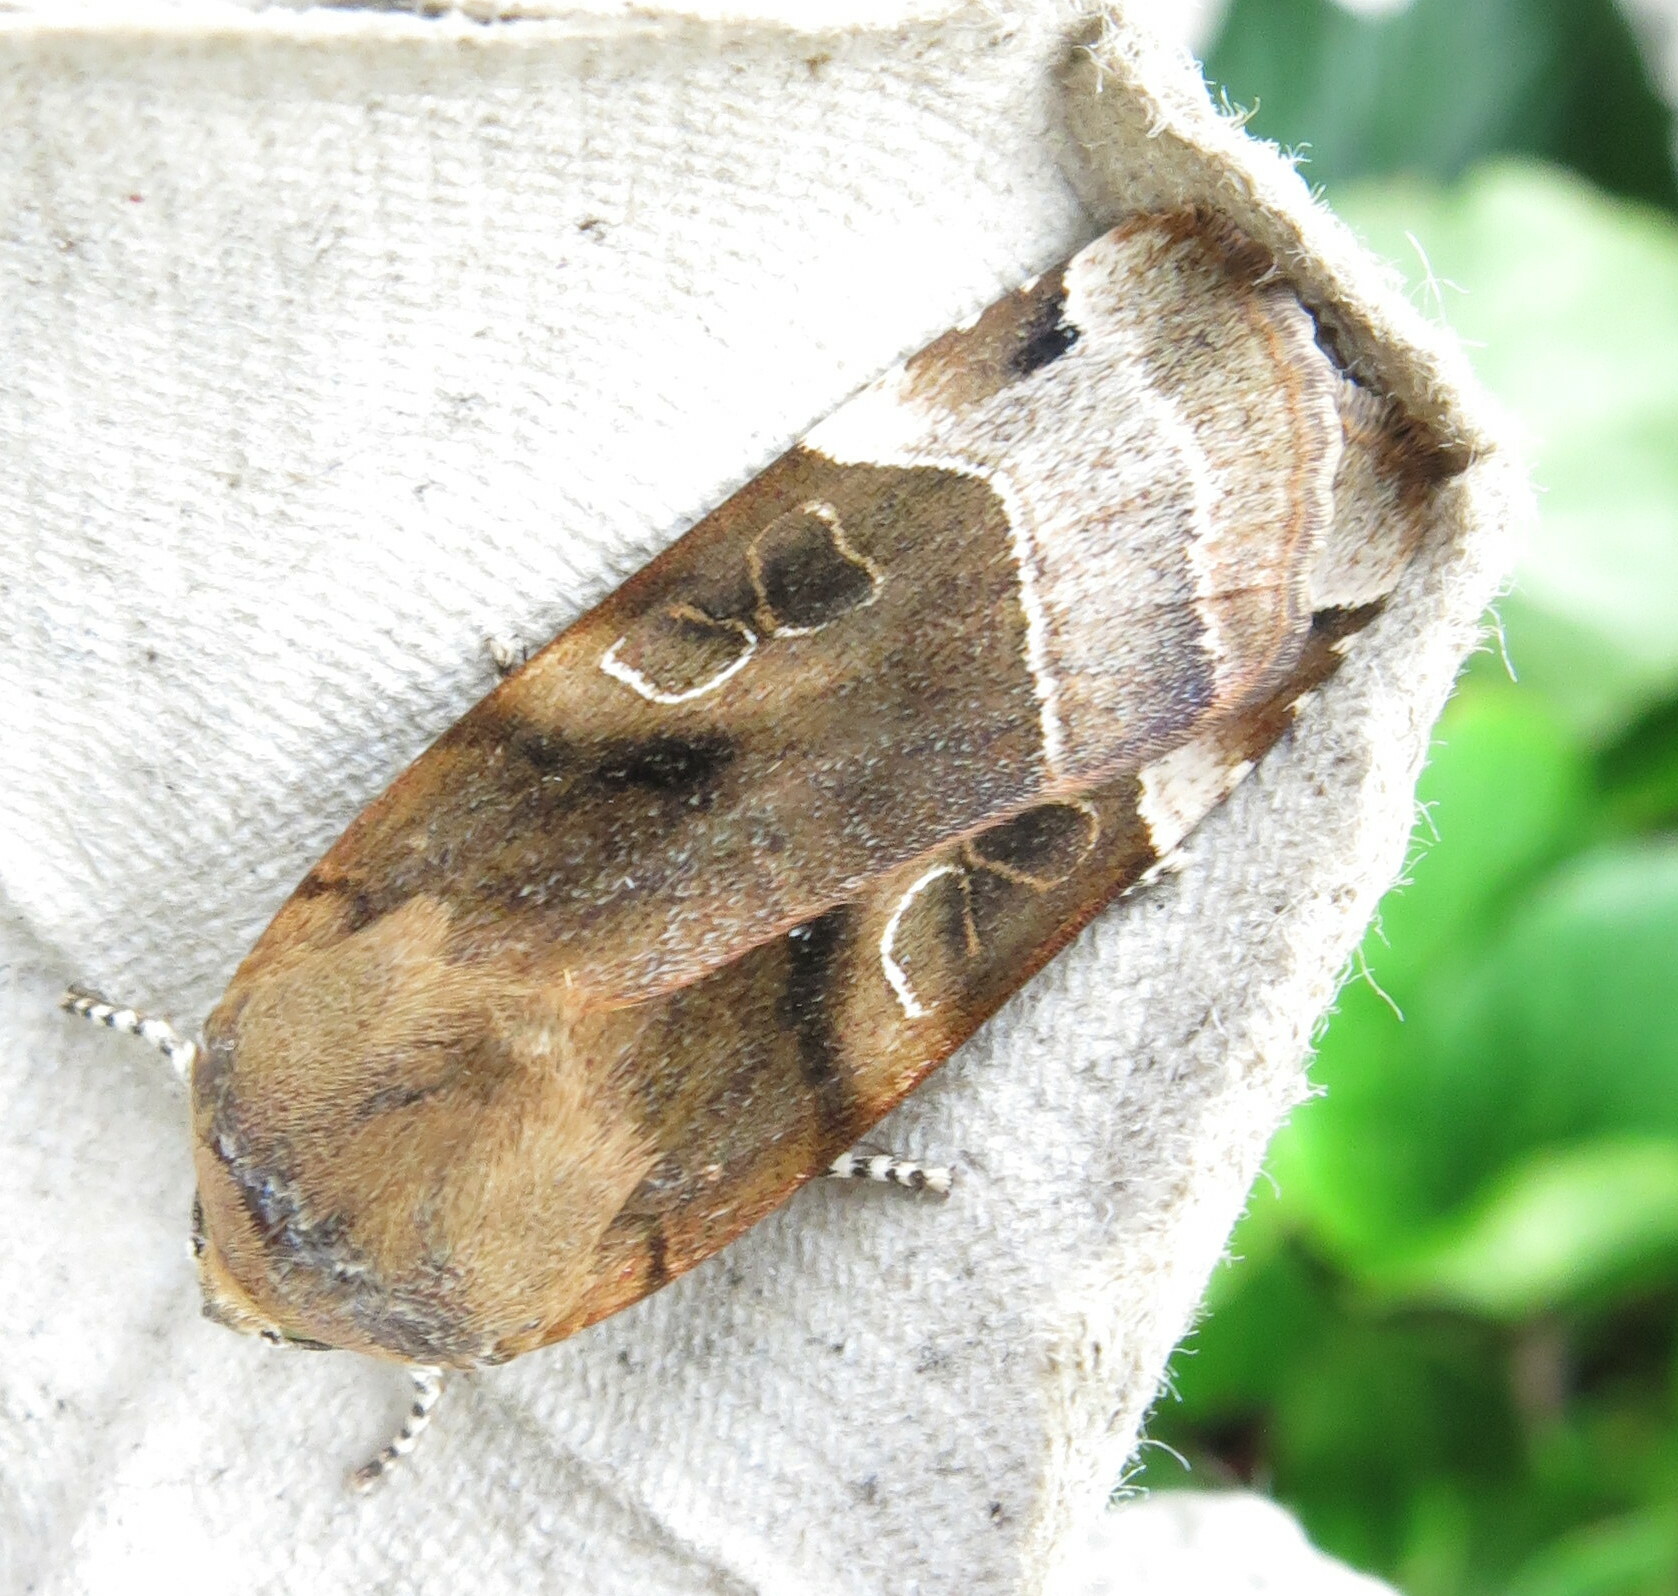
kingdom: Animalia
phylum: Arthropoda
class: Insecta
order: Lepidoptera
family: Noctuidae
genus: Noctua
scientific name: Noctua fimbriata
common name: Broad-bordered yellow underwing
